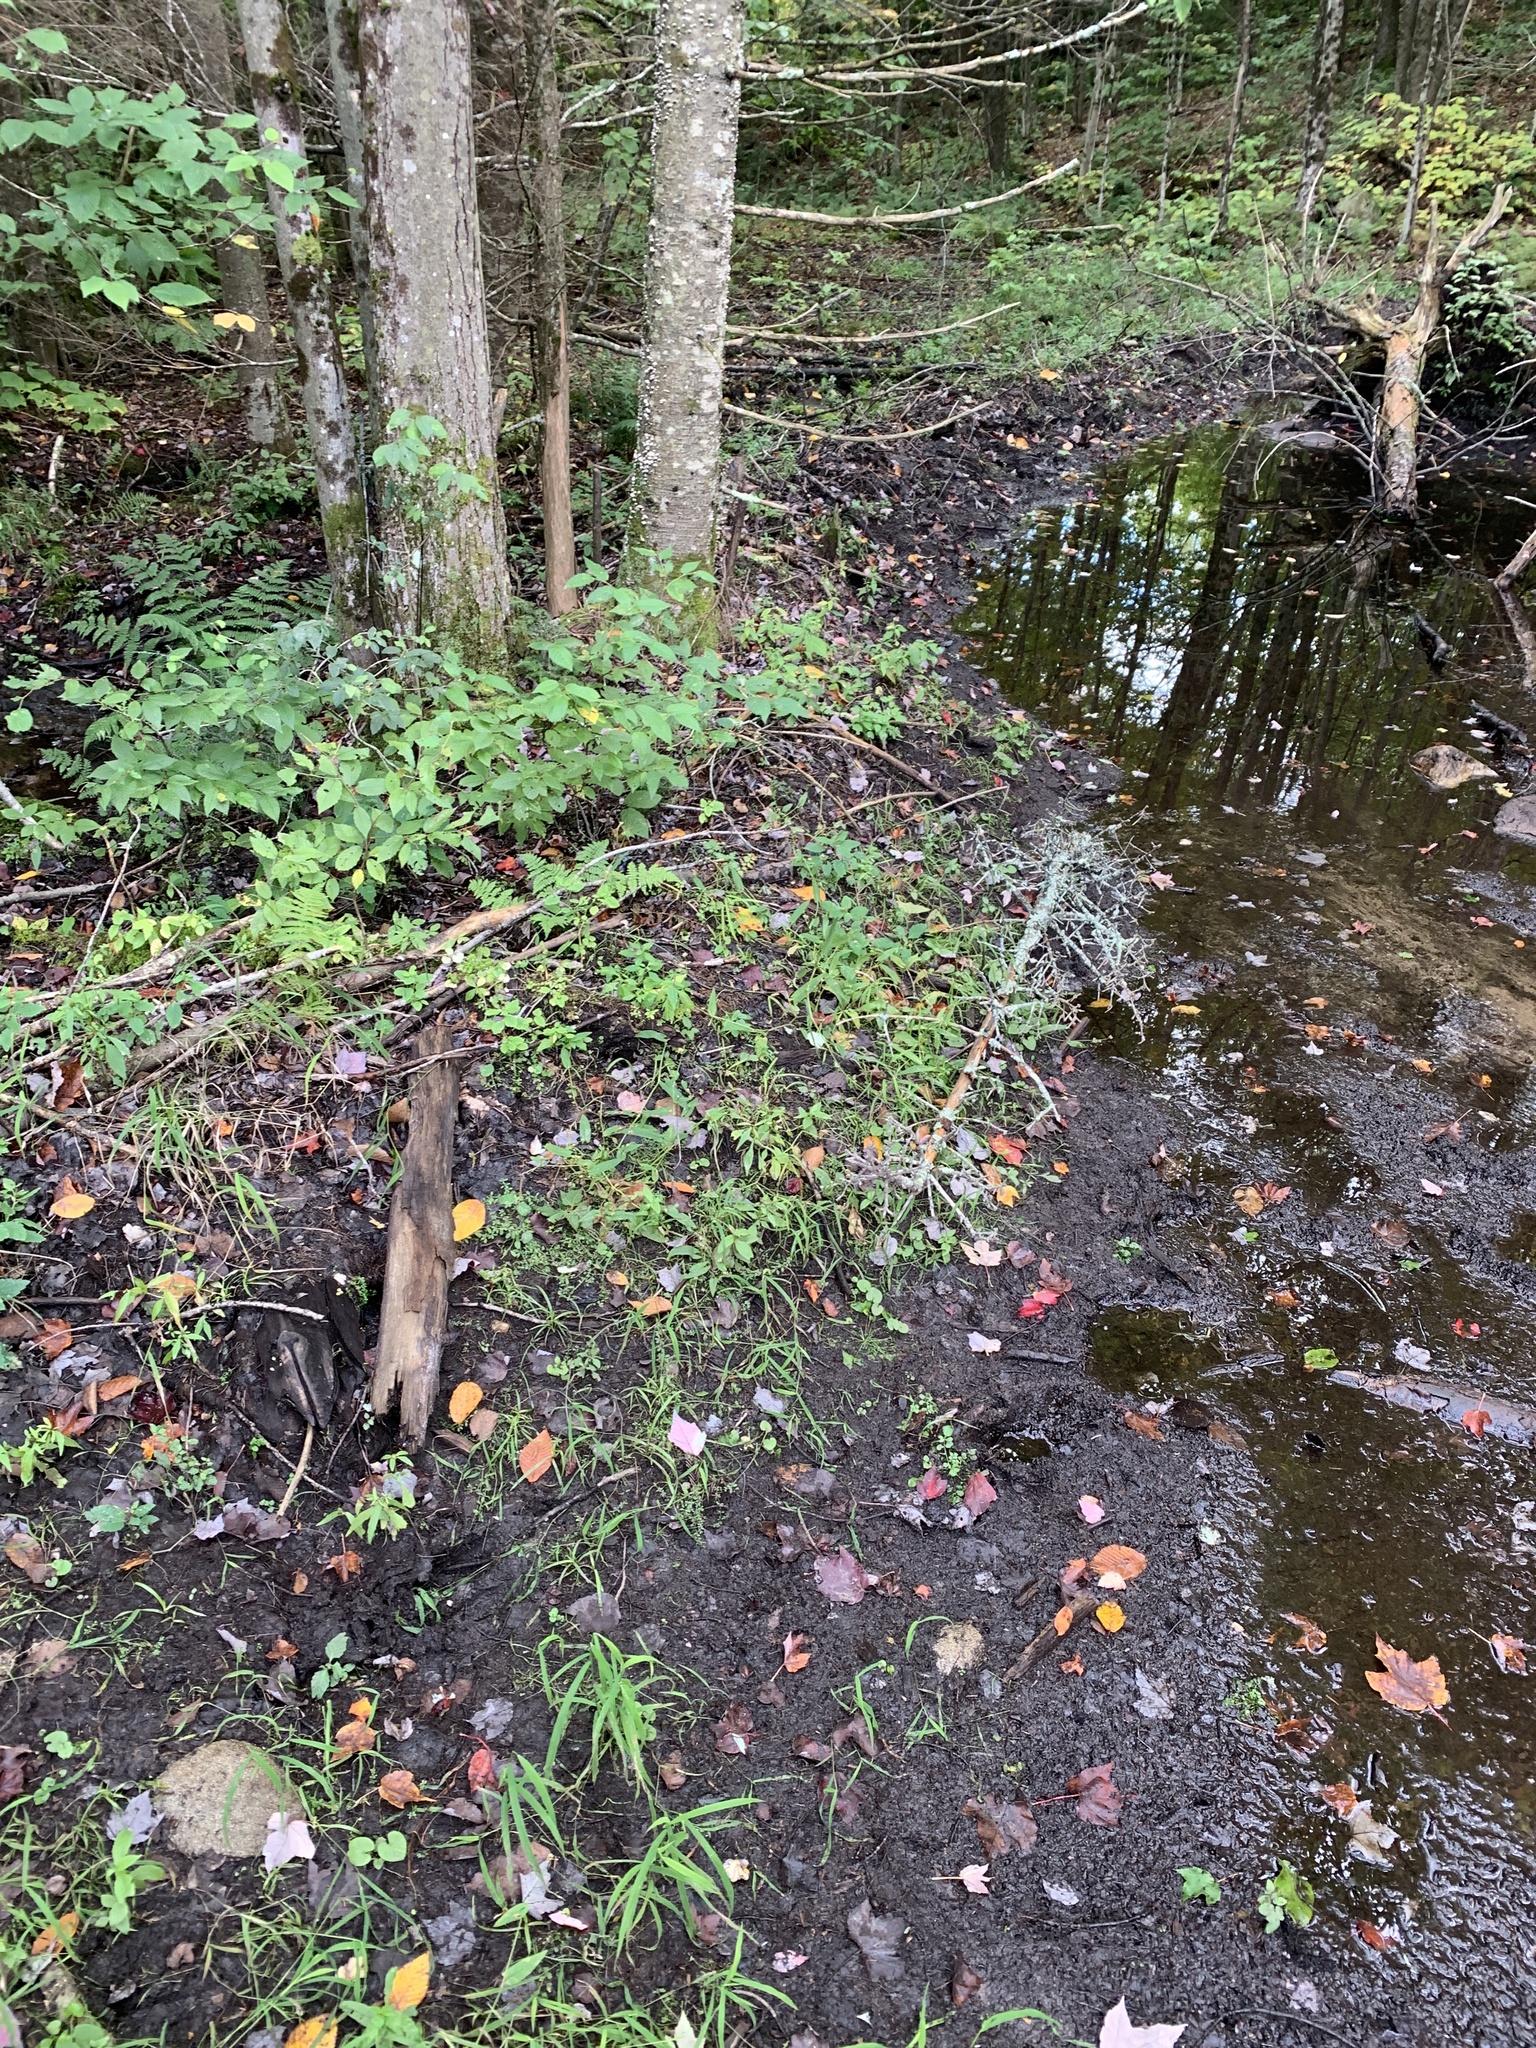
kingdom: Animalia
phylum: Chordata
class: Mammalia
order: Rodentia
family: Castoridae
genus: Castor
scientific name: Castor canadensis
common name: American beaver
